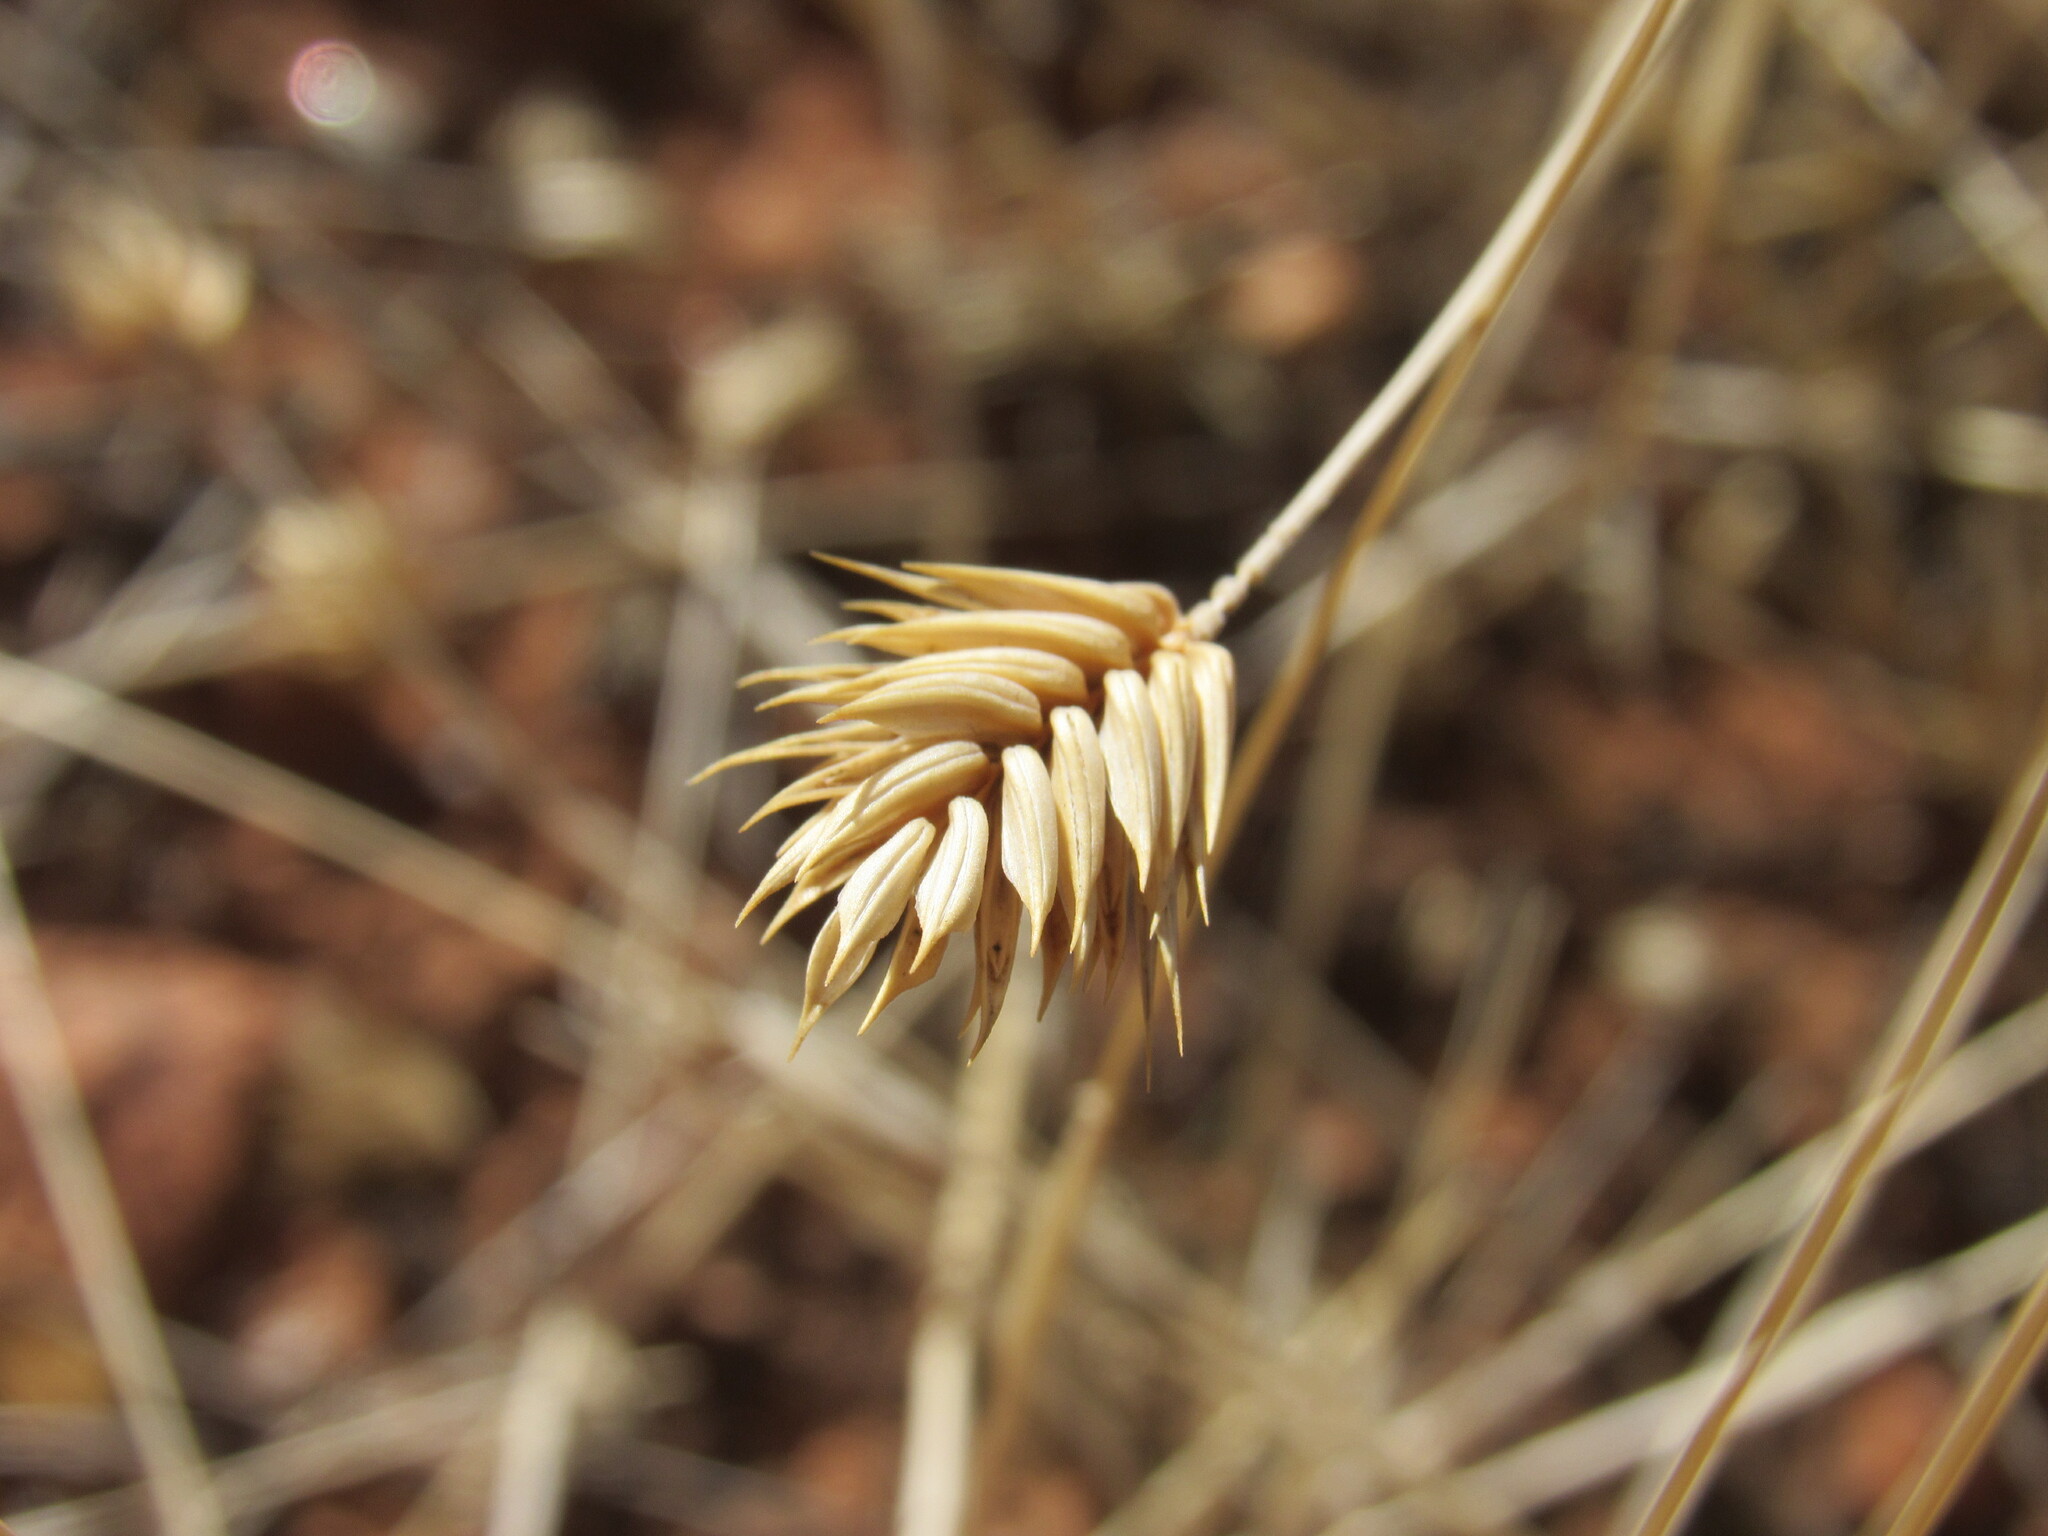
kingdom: Plantae
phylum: Tracheophyta
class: Liliopsida
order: Poales
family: Poaceae
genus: Eremopyrum
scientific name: Eremopyrum triticeum
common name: Annual wheatgrass
